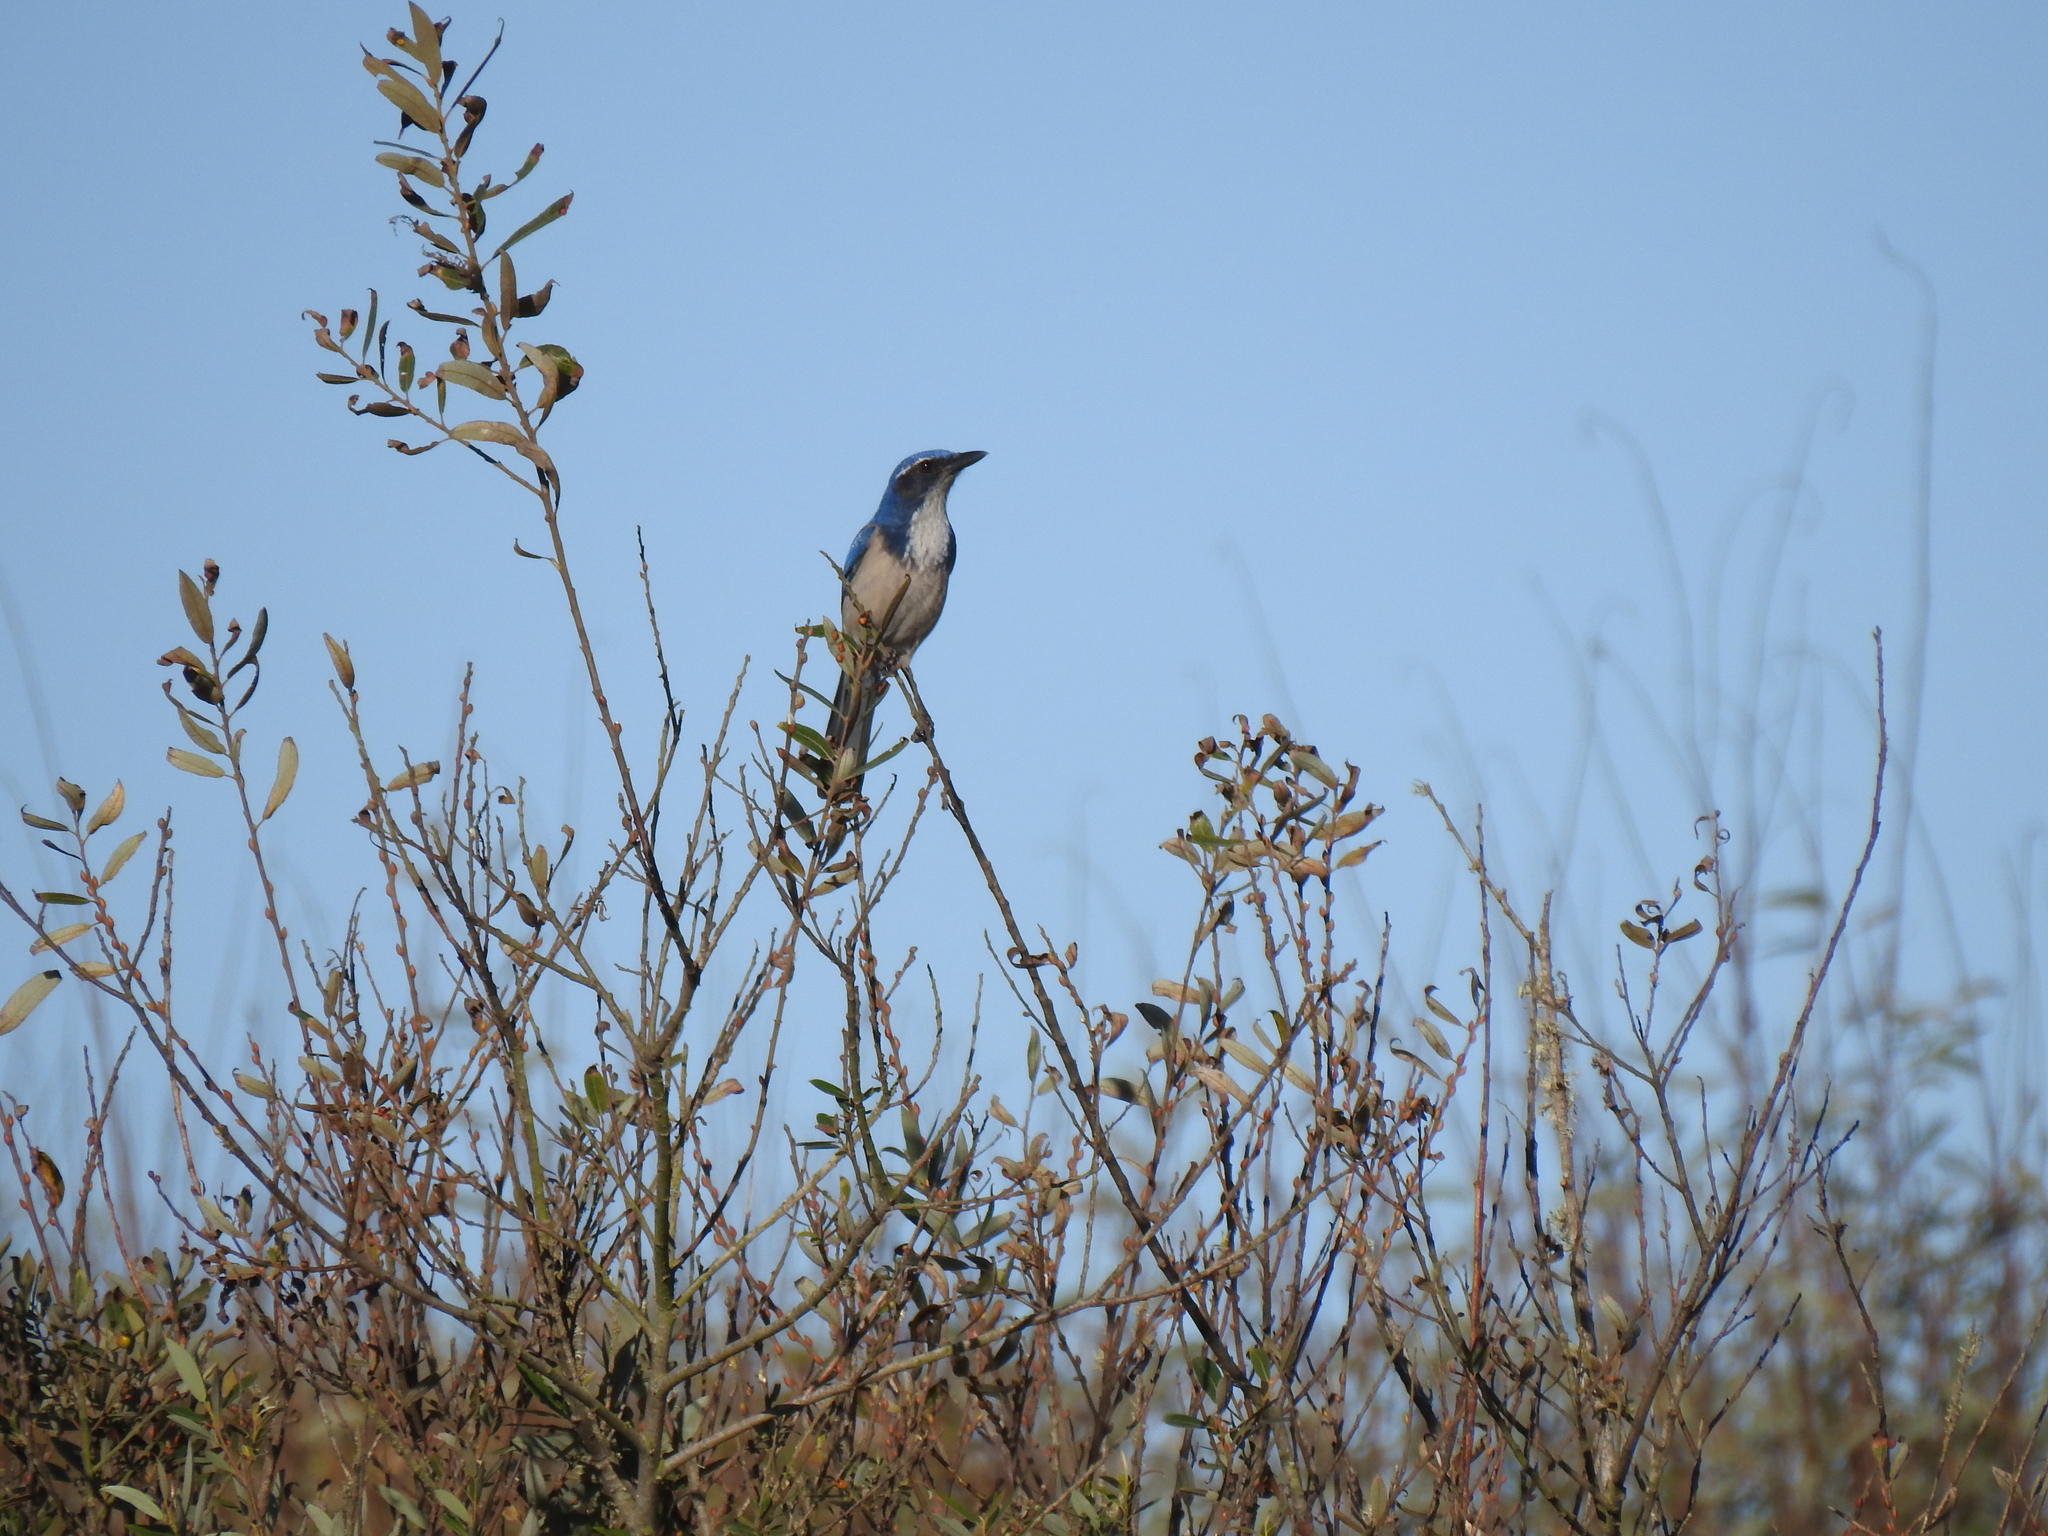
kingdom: Animalia
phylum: Chordata
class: Aves
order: Passeriformes
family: Corvidae
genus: Aphelocoma
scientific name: Aphelocoma californica
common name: California scrub-jay
